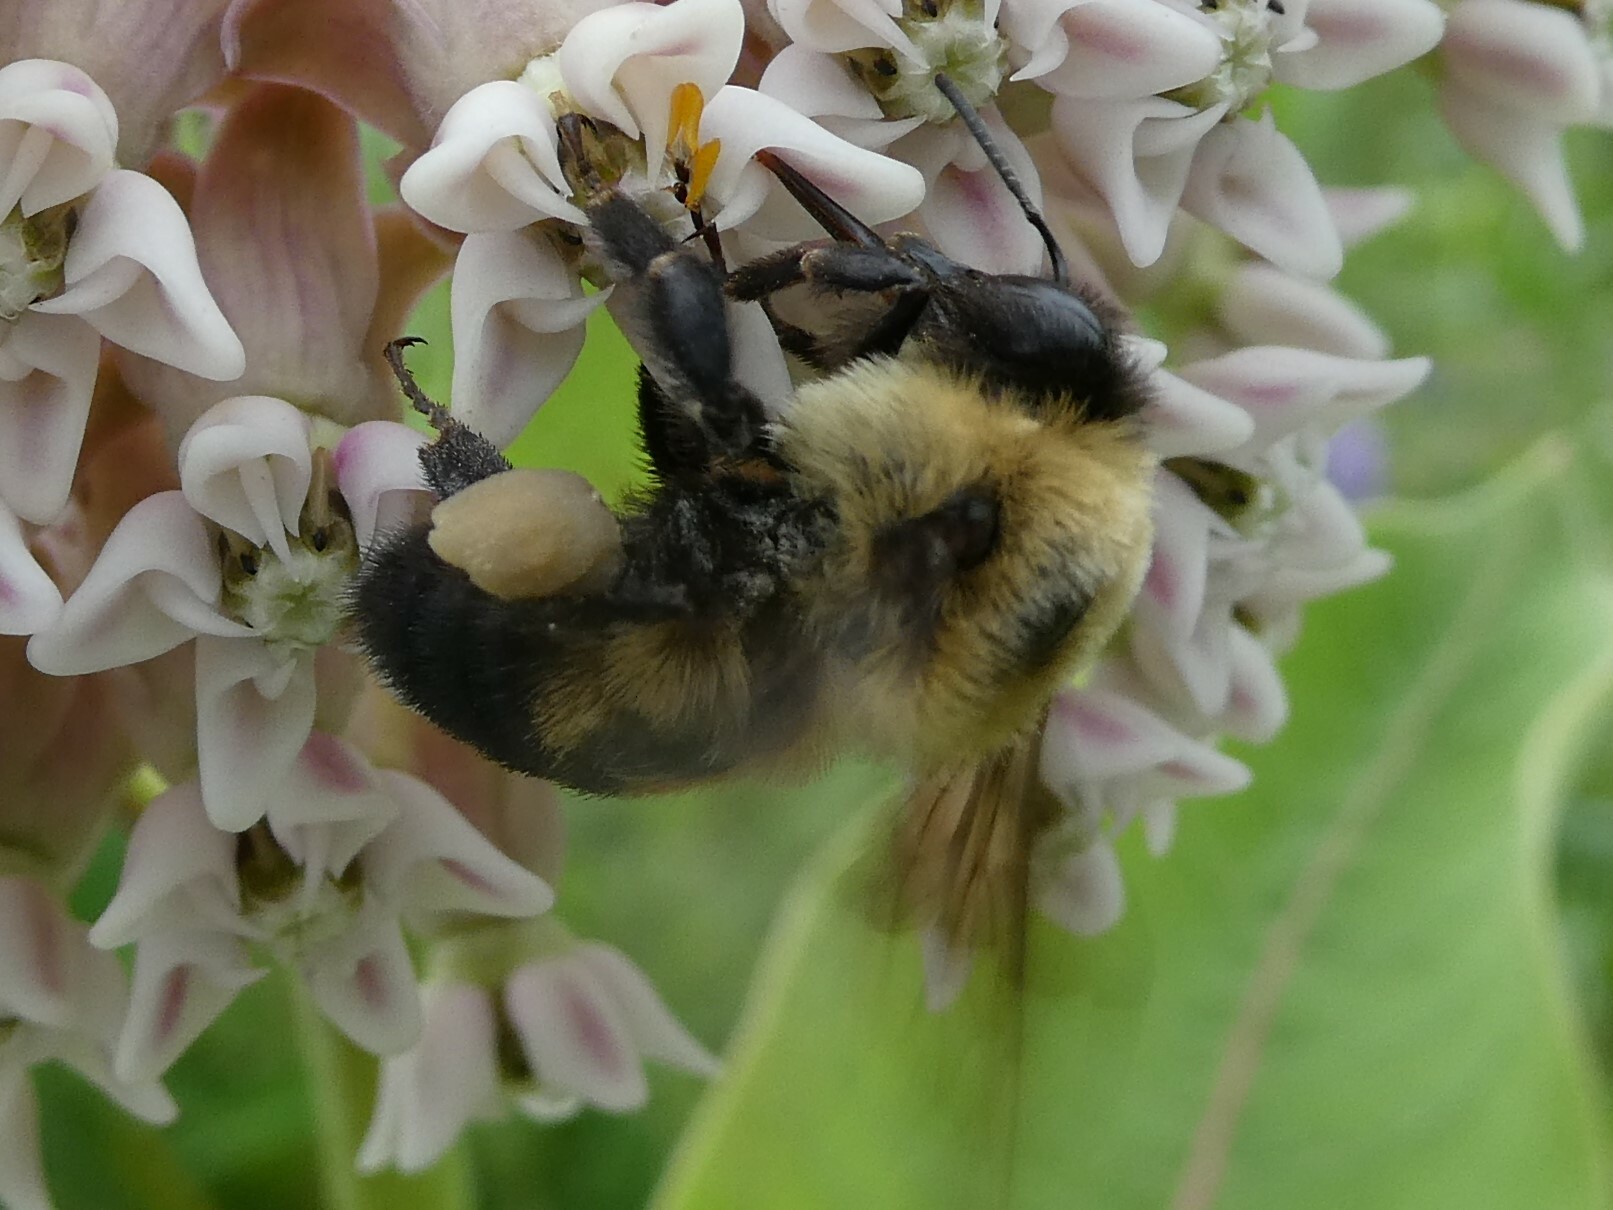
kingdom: Animalia
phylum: Arthropoda
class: Insecta
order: Hymenoptera
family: Apidae
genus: Bombus
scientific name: Bombus griseocollis
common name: Brown-belted bumble bee
